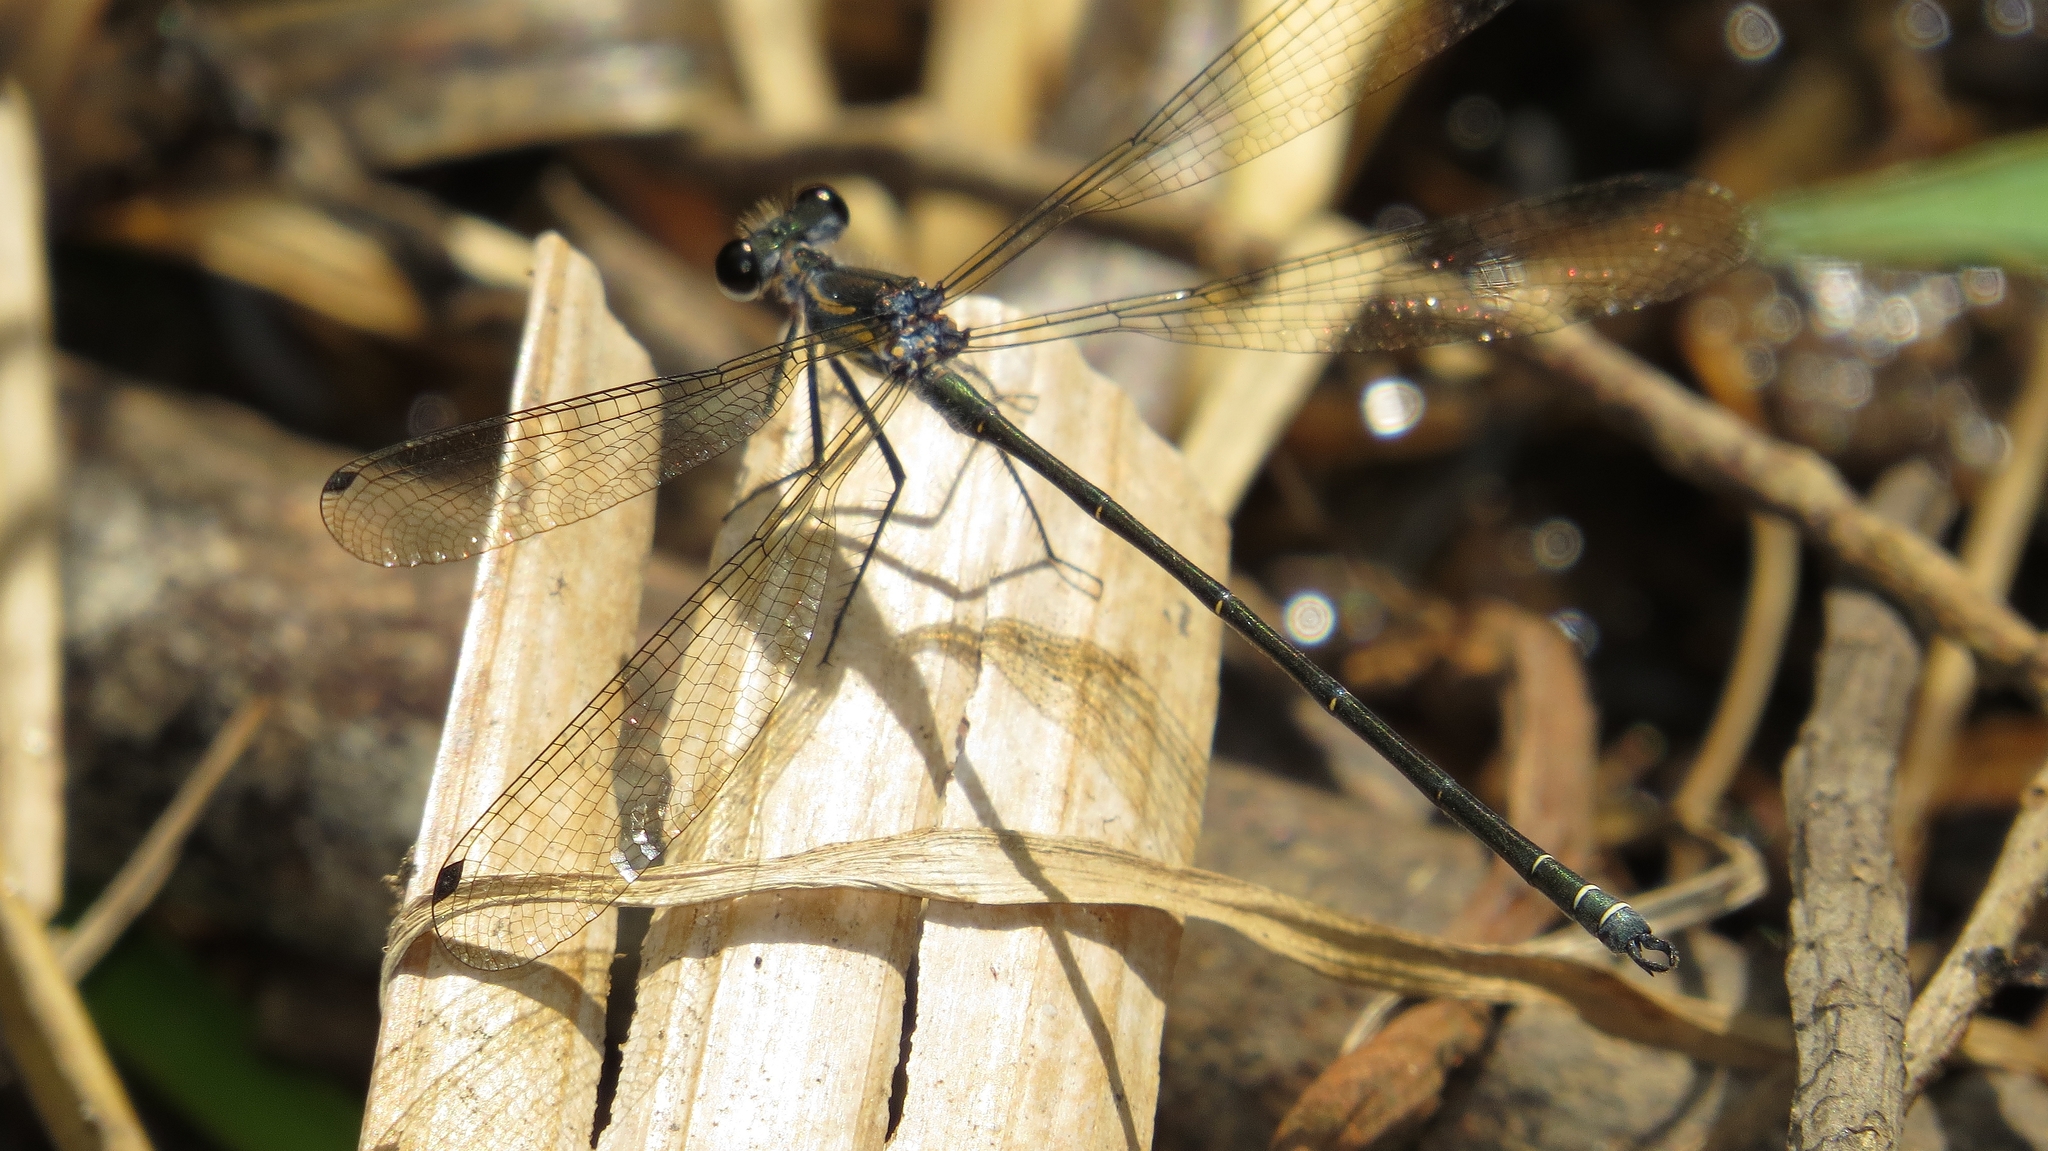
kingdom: Animalia
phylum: Arthropoda
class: Insecta
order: Odonata
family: Argiolestidae
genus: Austroargiolestes
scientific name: Austroargiolestes icteromelas
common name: Common flatwing
